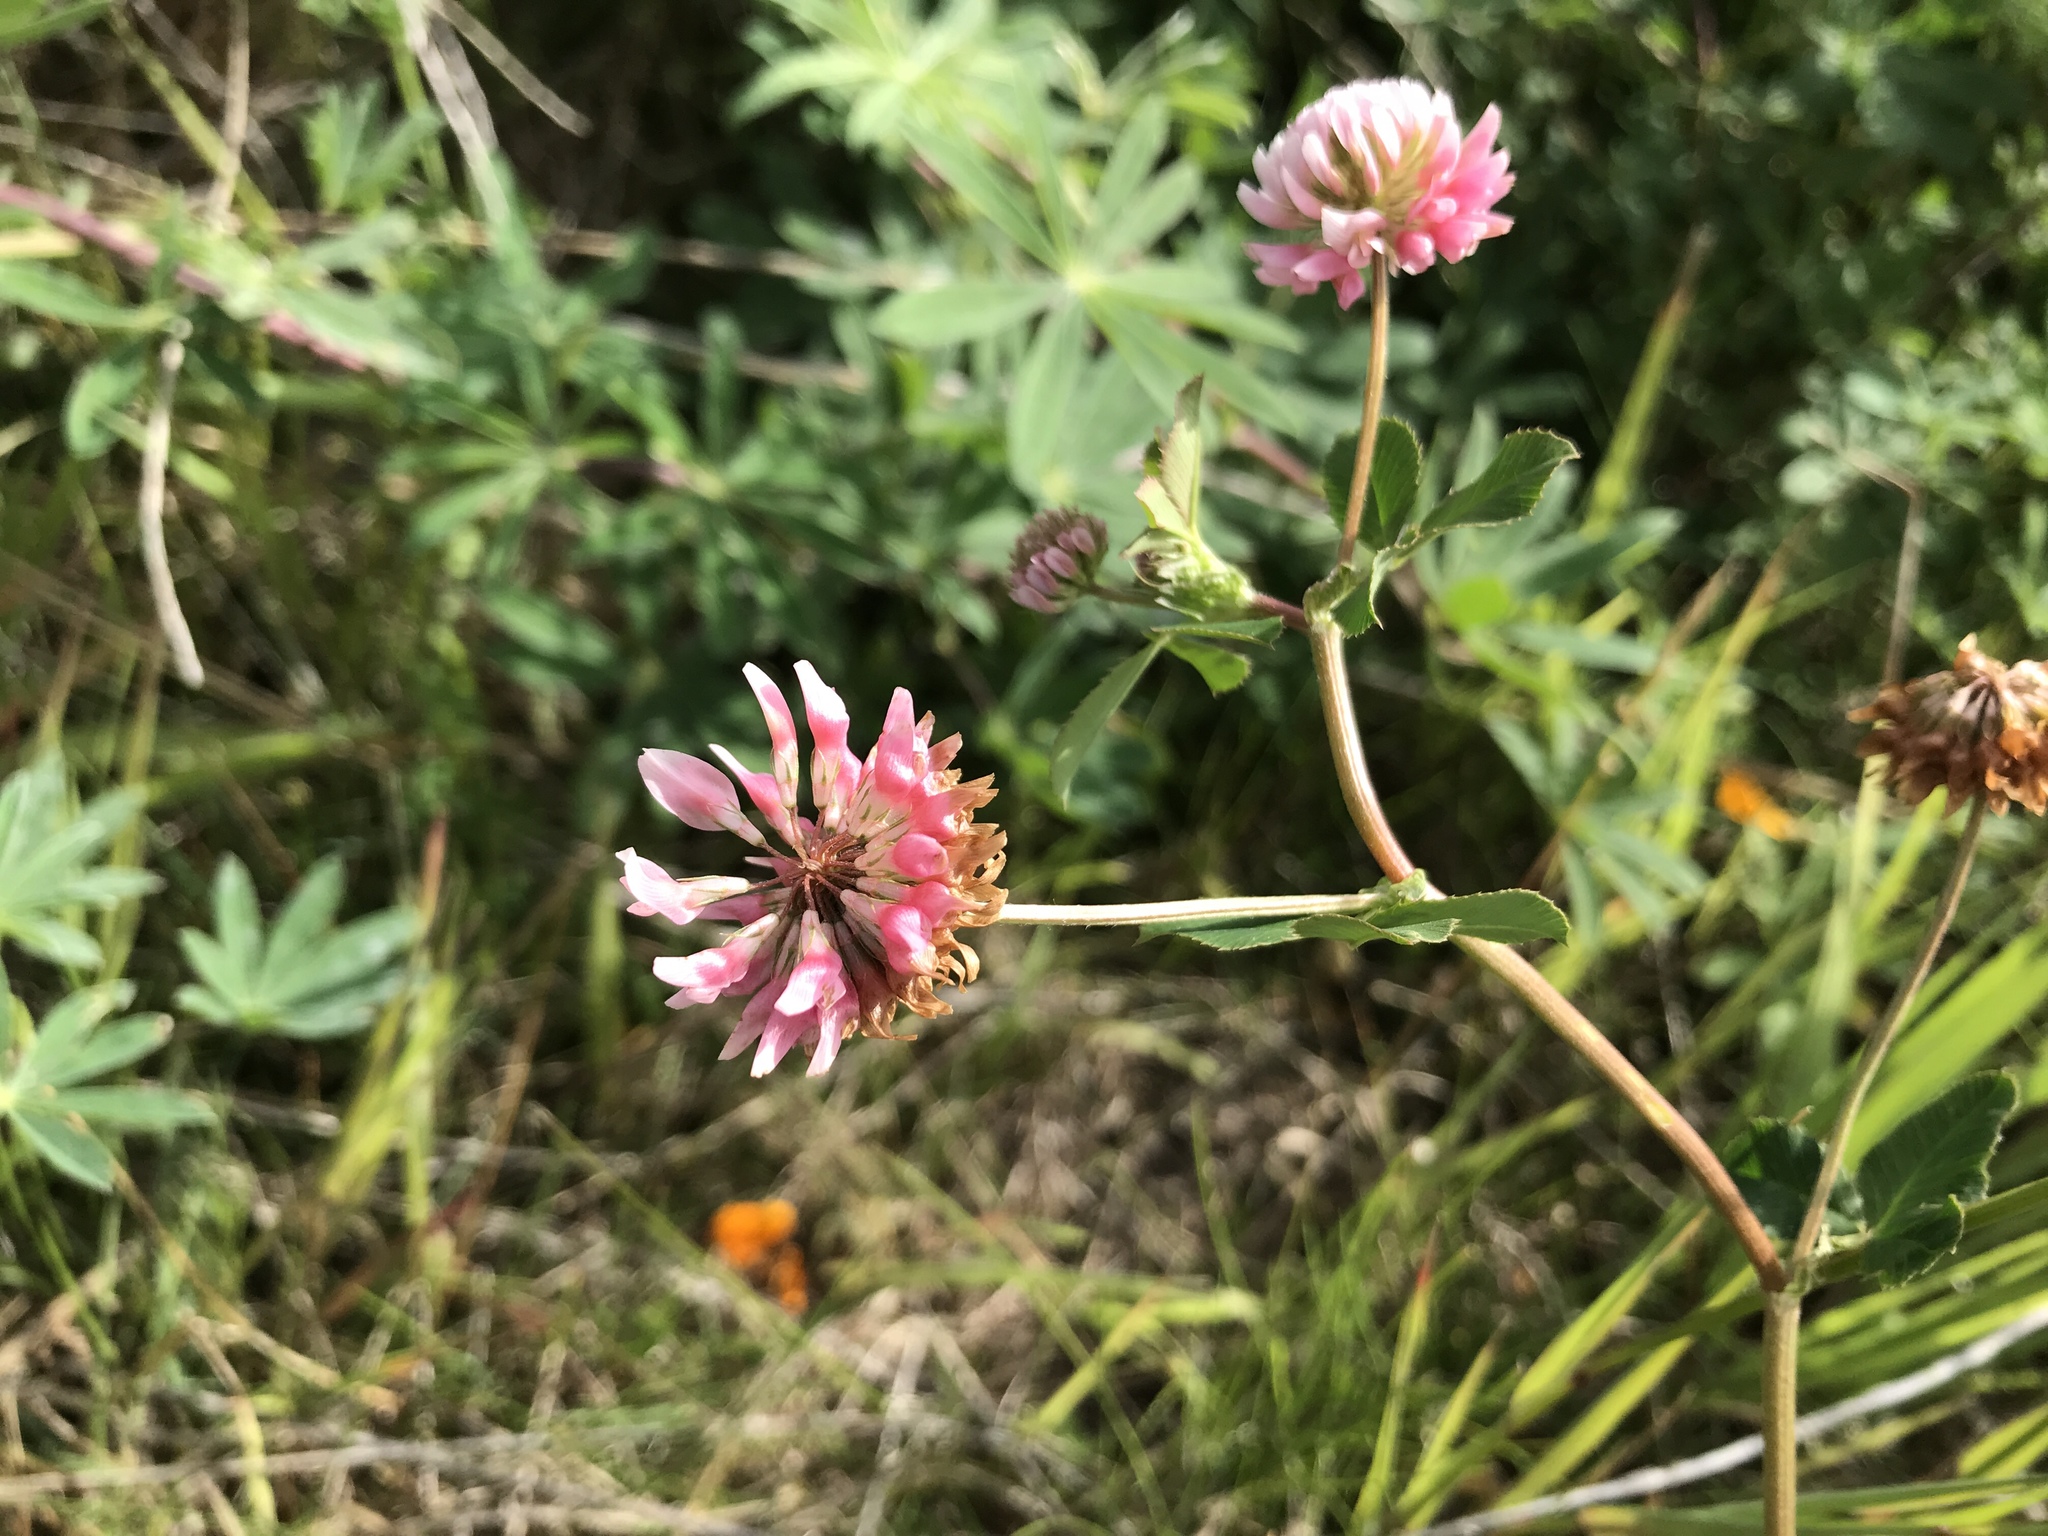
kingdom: Plantae
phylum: Tracheophyta
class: Magnoliopsida
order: Fabales
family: Fabaceae
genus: Trifolium
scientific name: Trifolium hybridum
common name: Alsike clover
